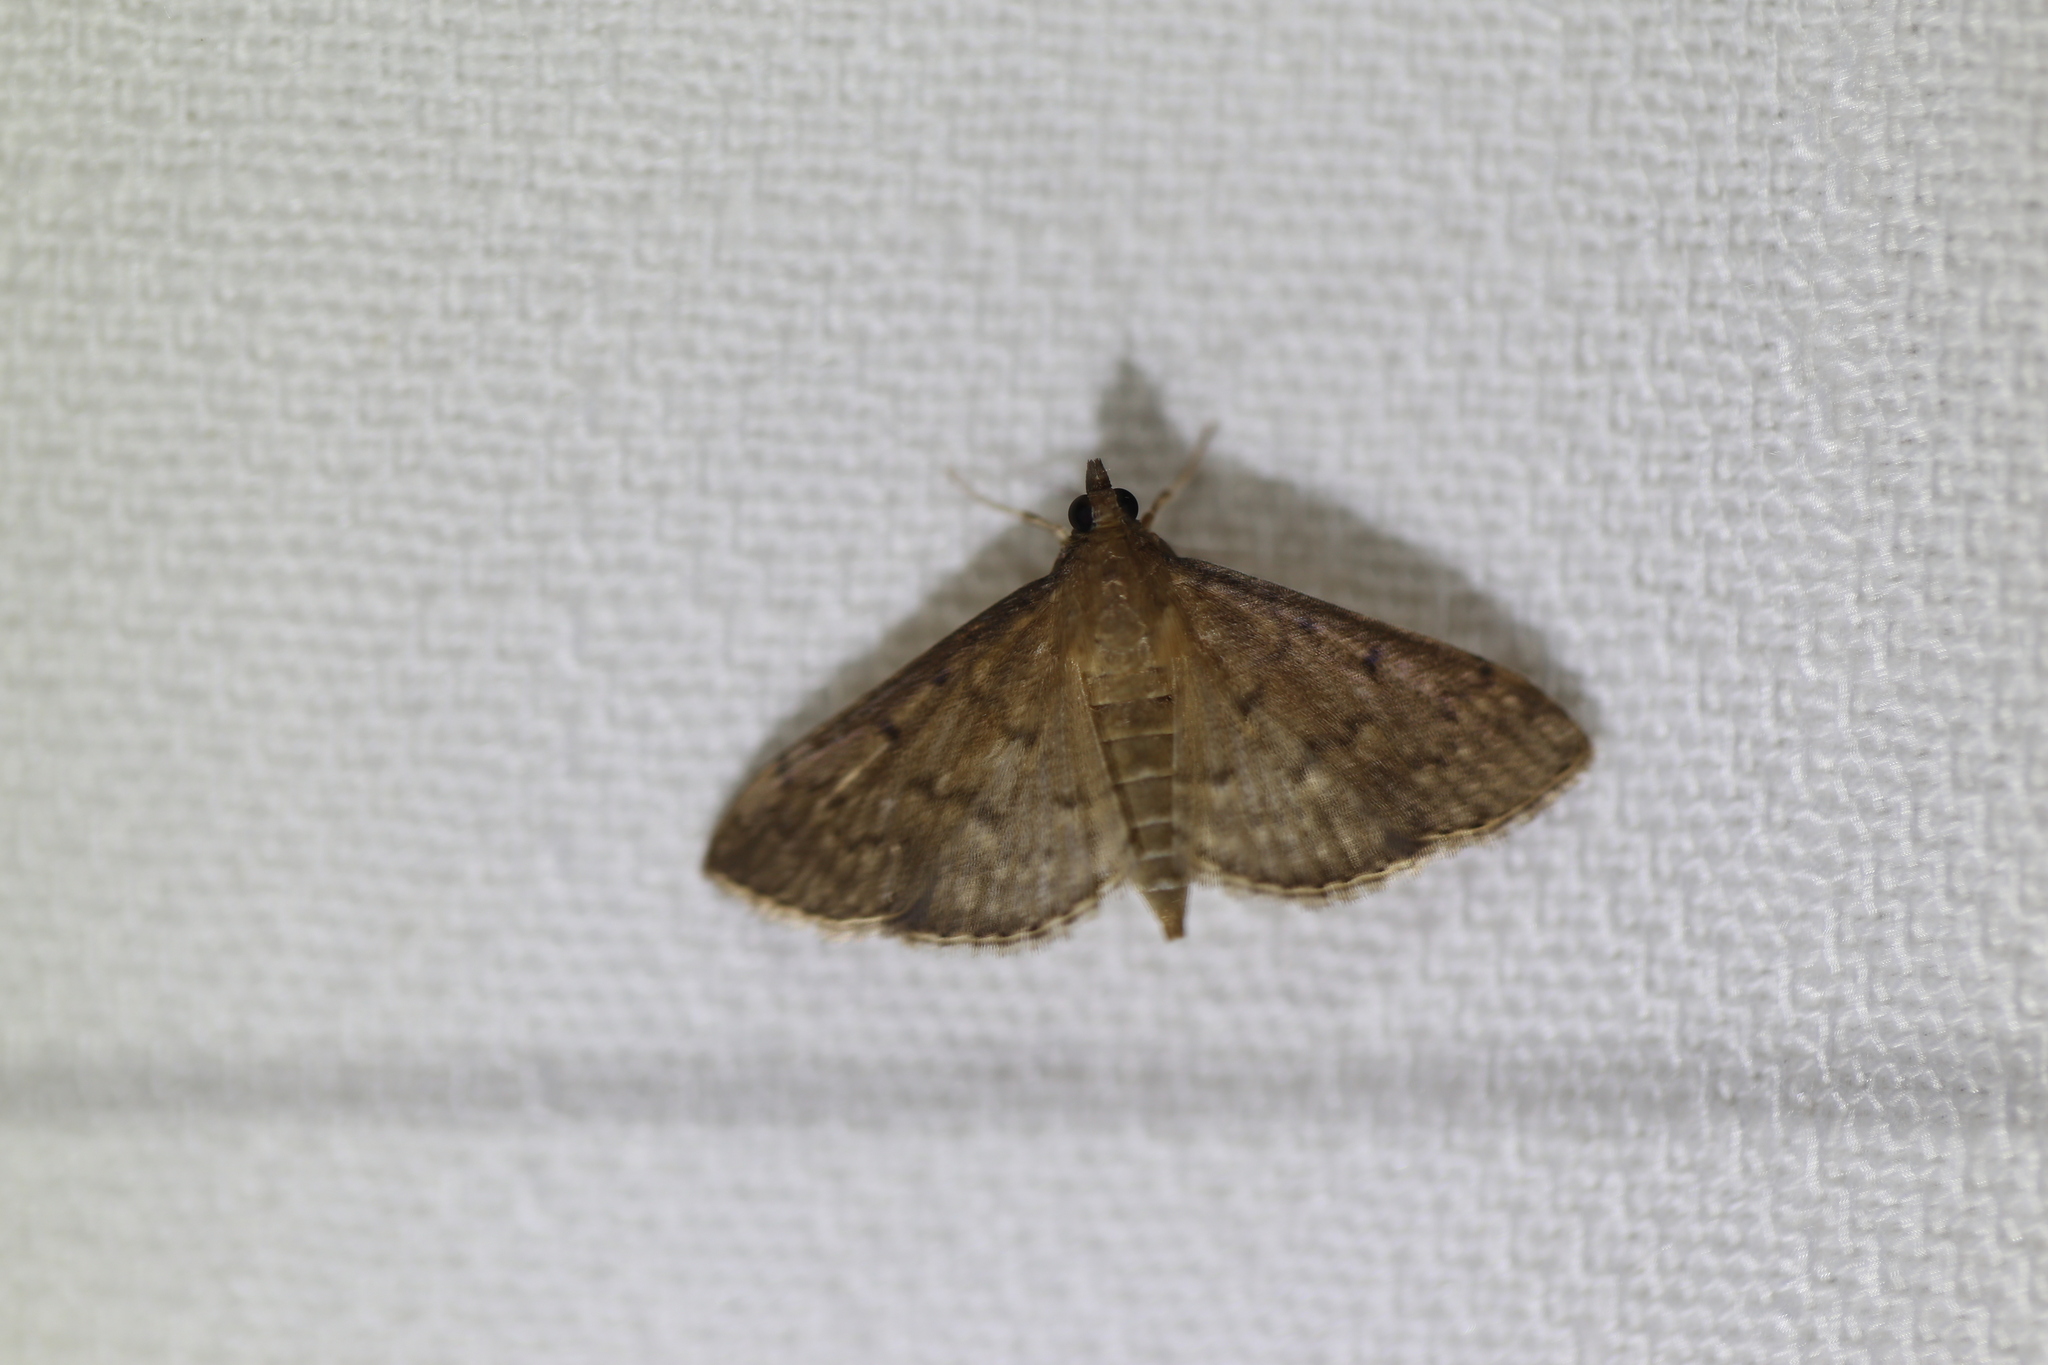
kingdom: Animalia
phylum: Arthropoda
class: Insecta
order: Lepidoptera
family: Crambidae
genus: Herpetogramma
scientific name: Herpetogramma licarsisalis
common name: Grass webworm
